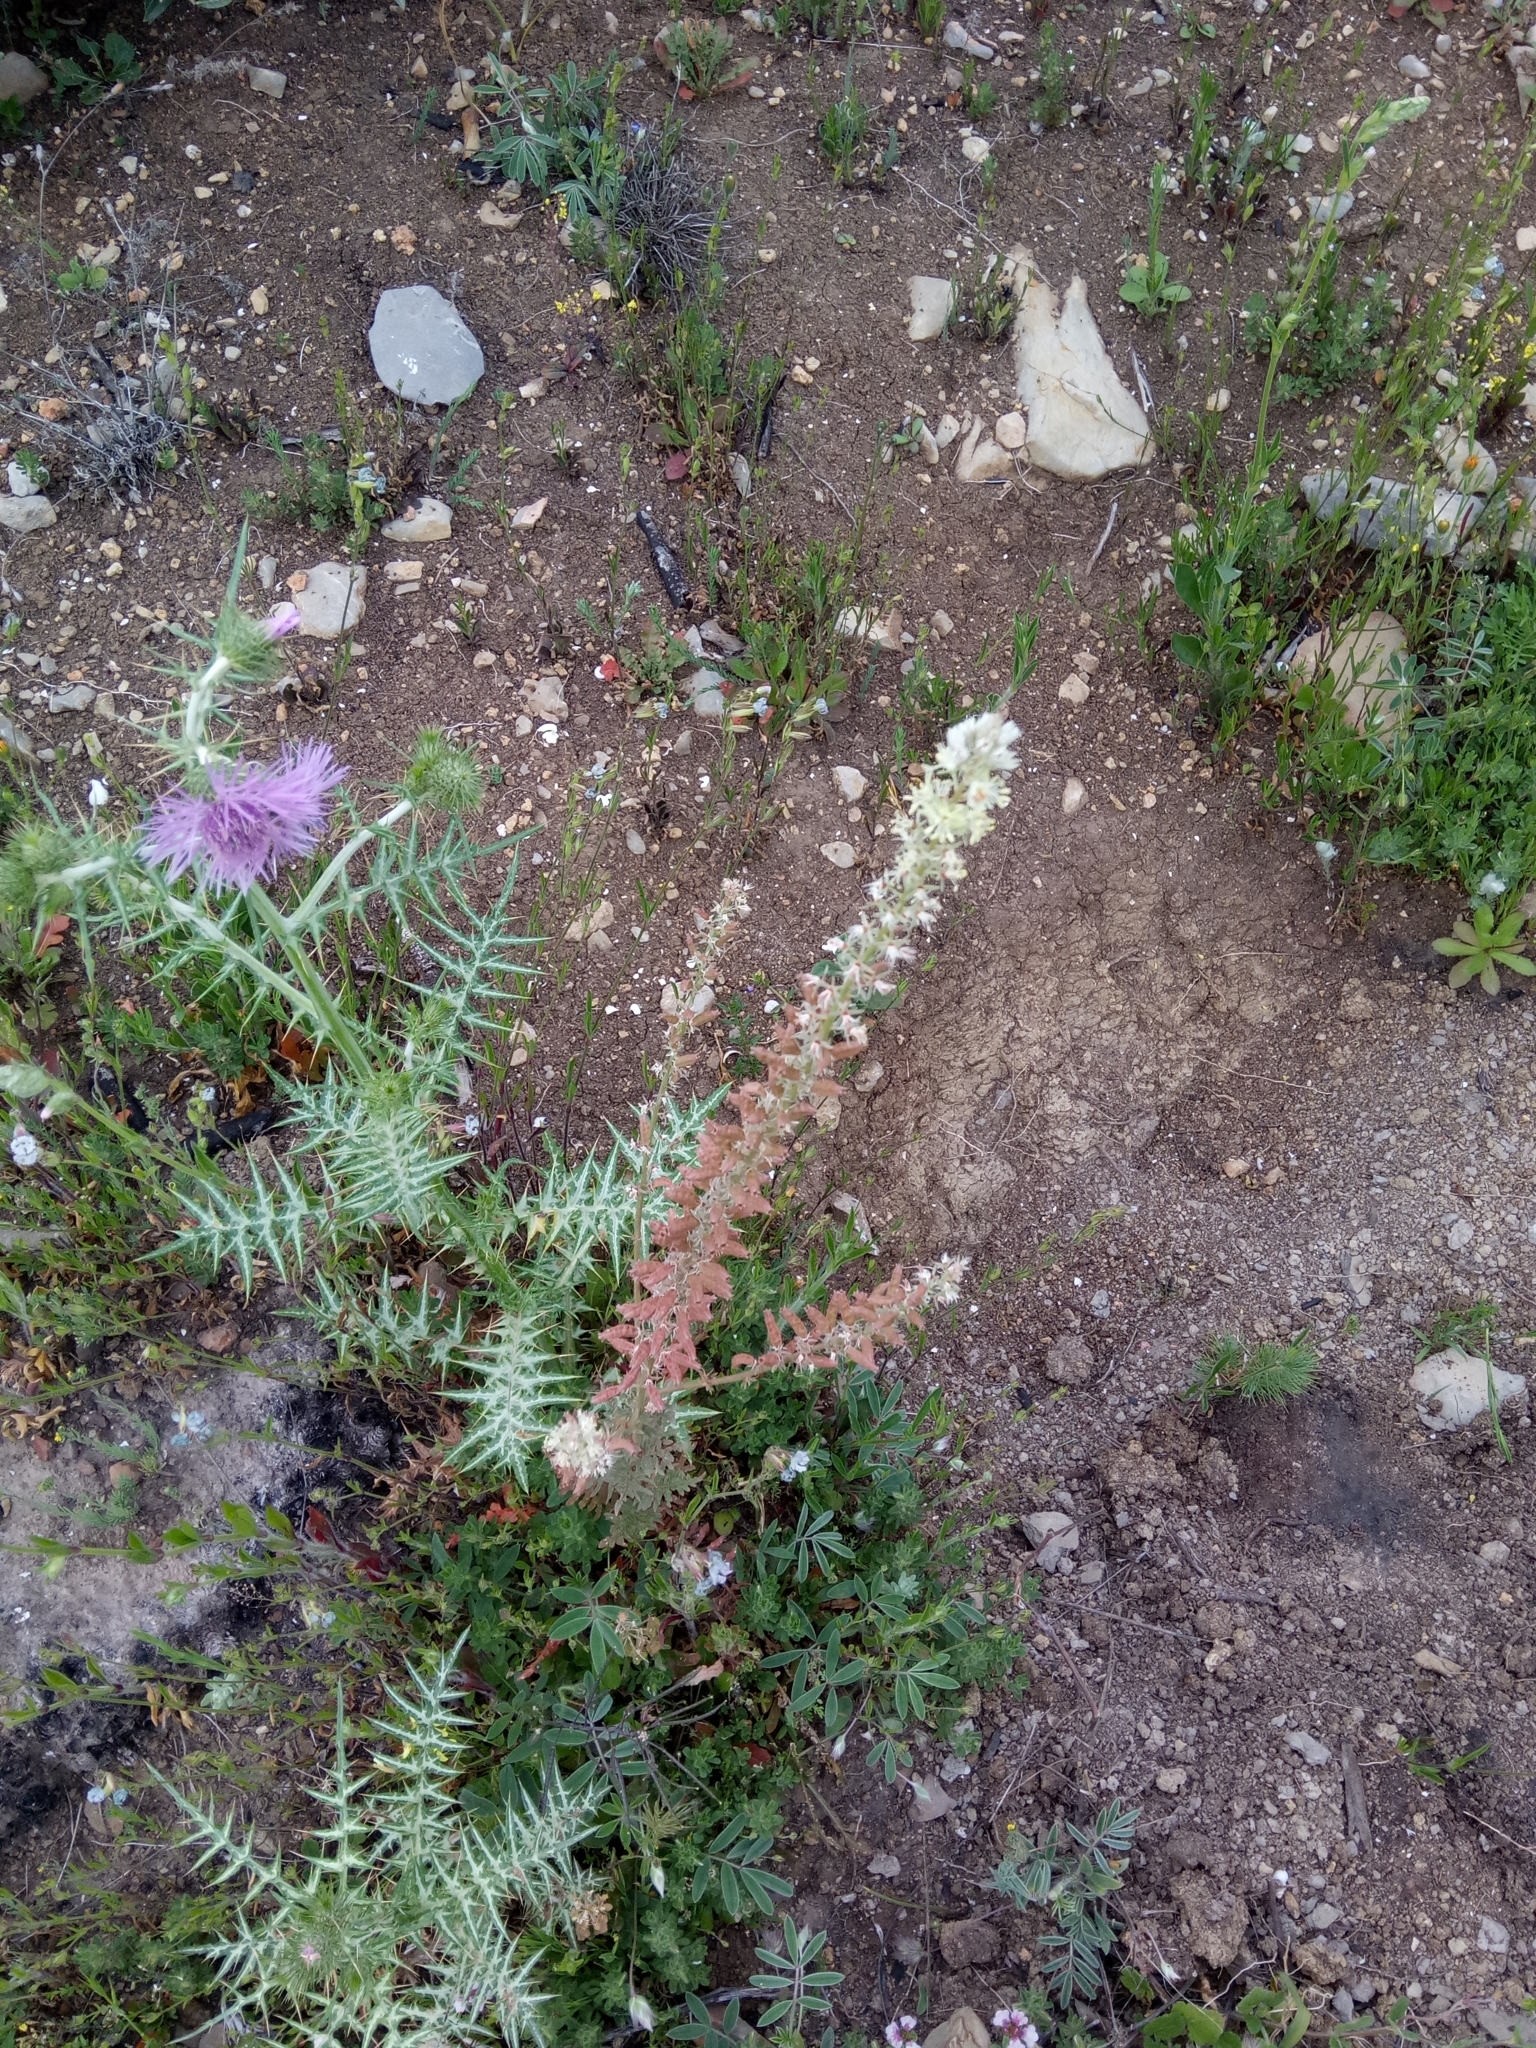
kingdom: Plantae
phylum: Tracheophyta
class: Magnoliopsida
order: Brassicales
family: Resedaceae
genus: Reseda
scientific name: Reseda alba
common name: White mignonette
